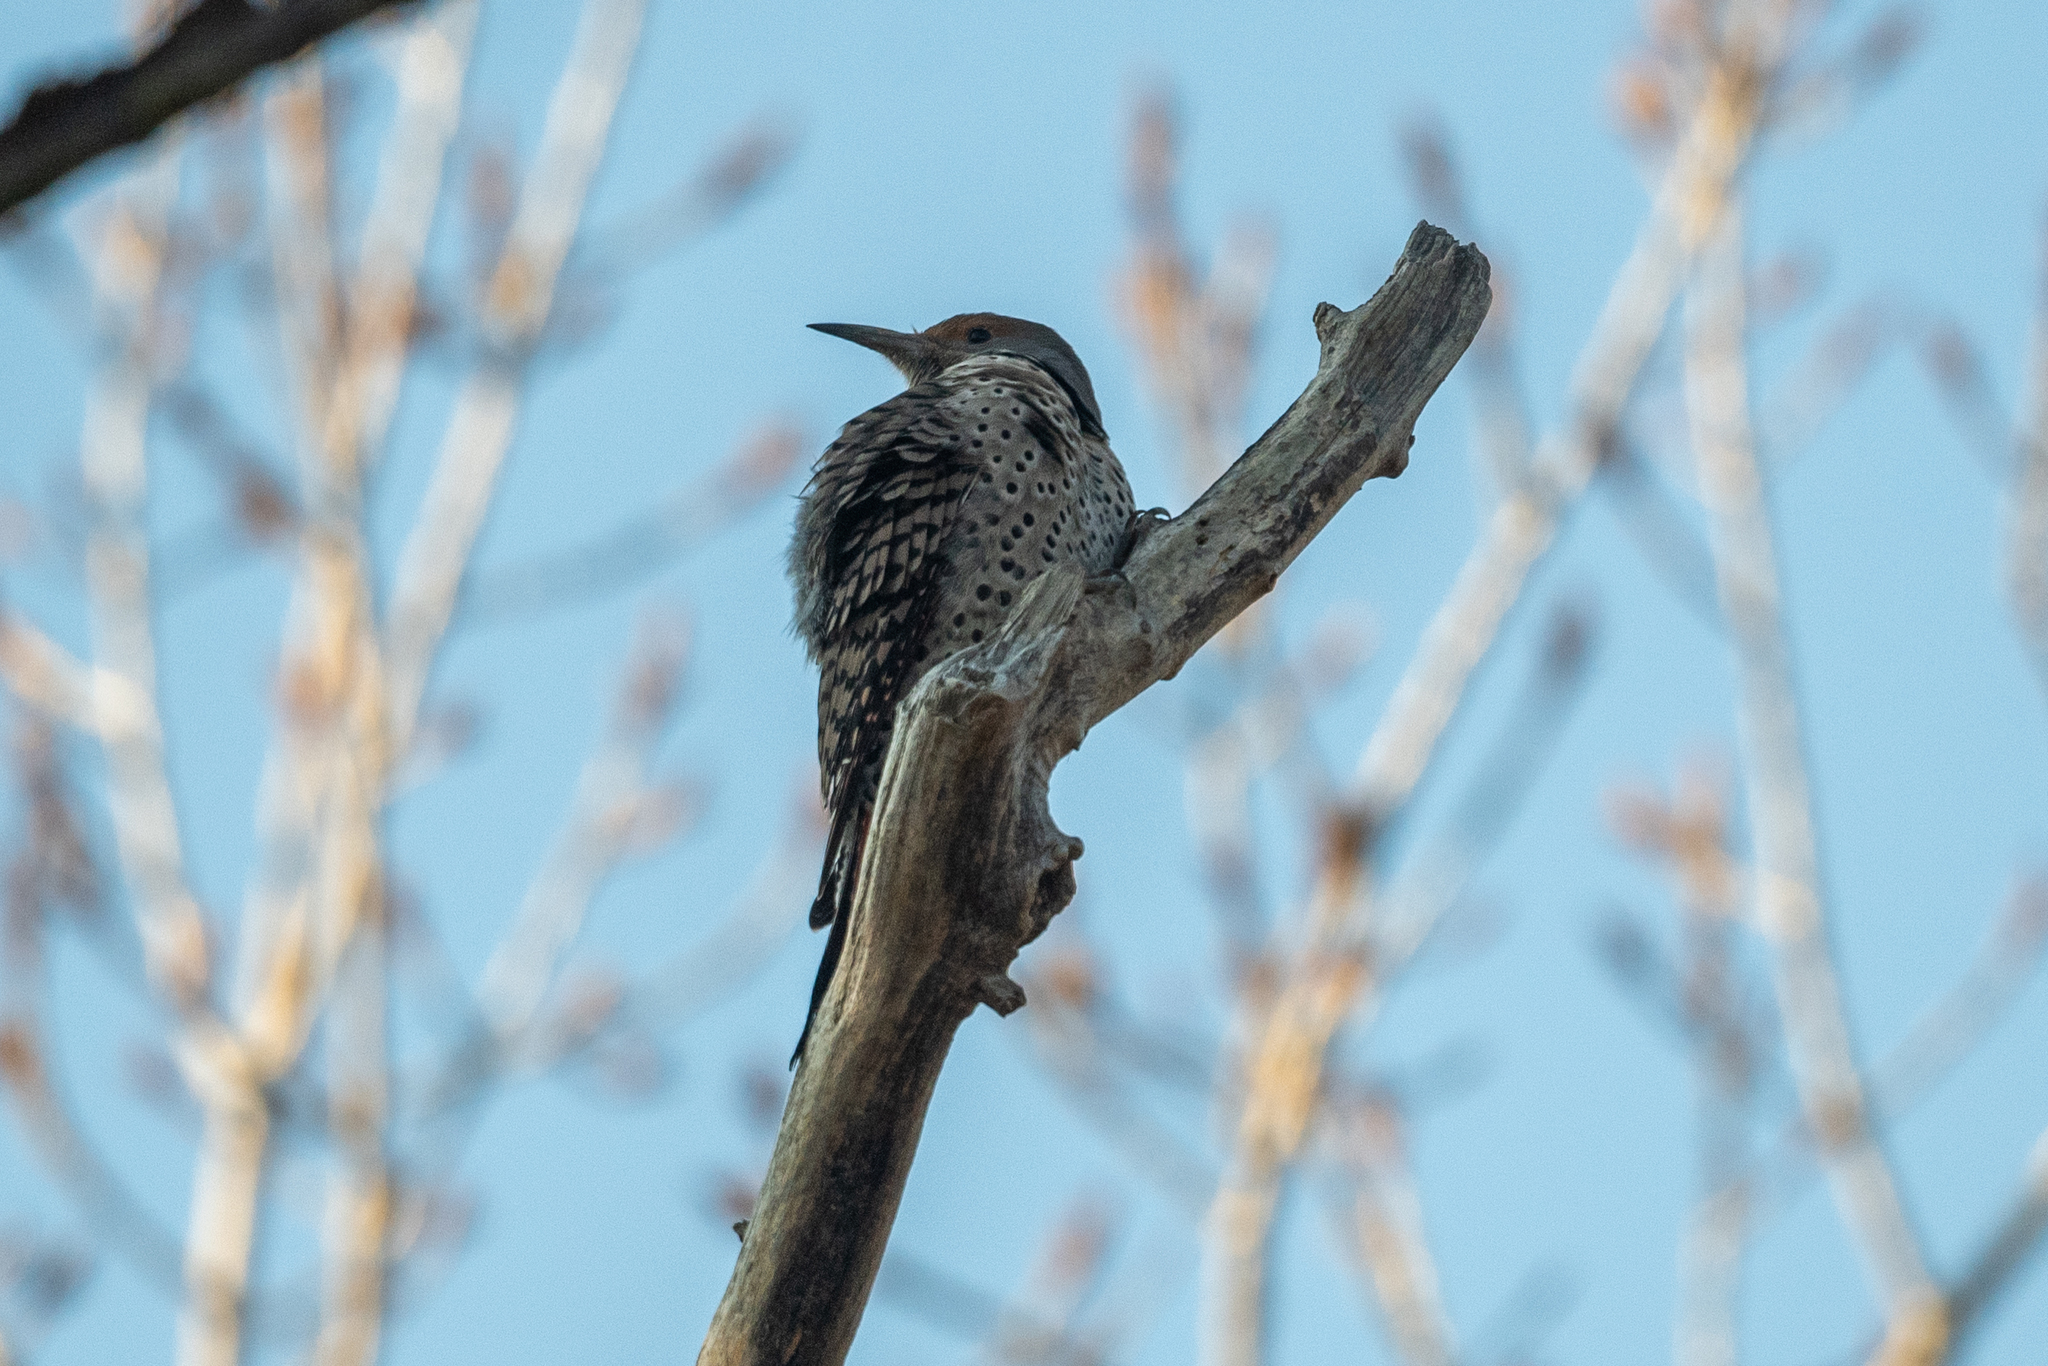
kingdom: Animalia
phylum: Chordata
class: Aves
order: Piciformes
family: Picidae
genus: Colaptes
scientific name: Colaptes auratus
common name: Northern flicker
